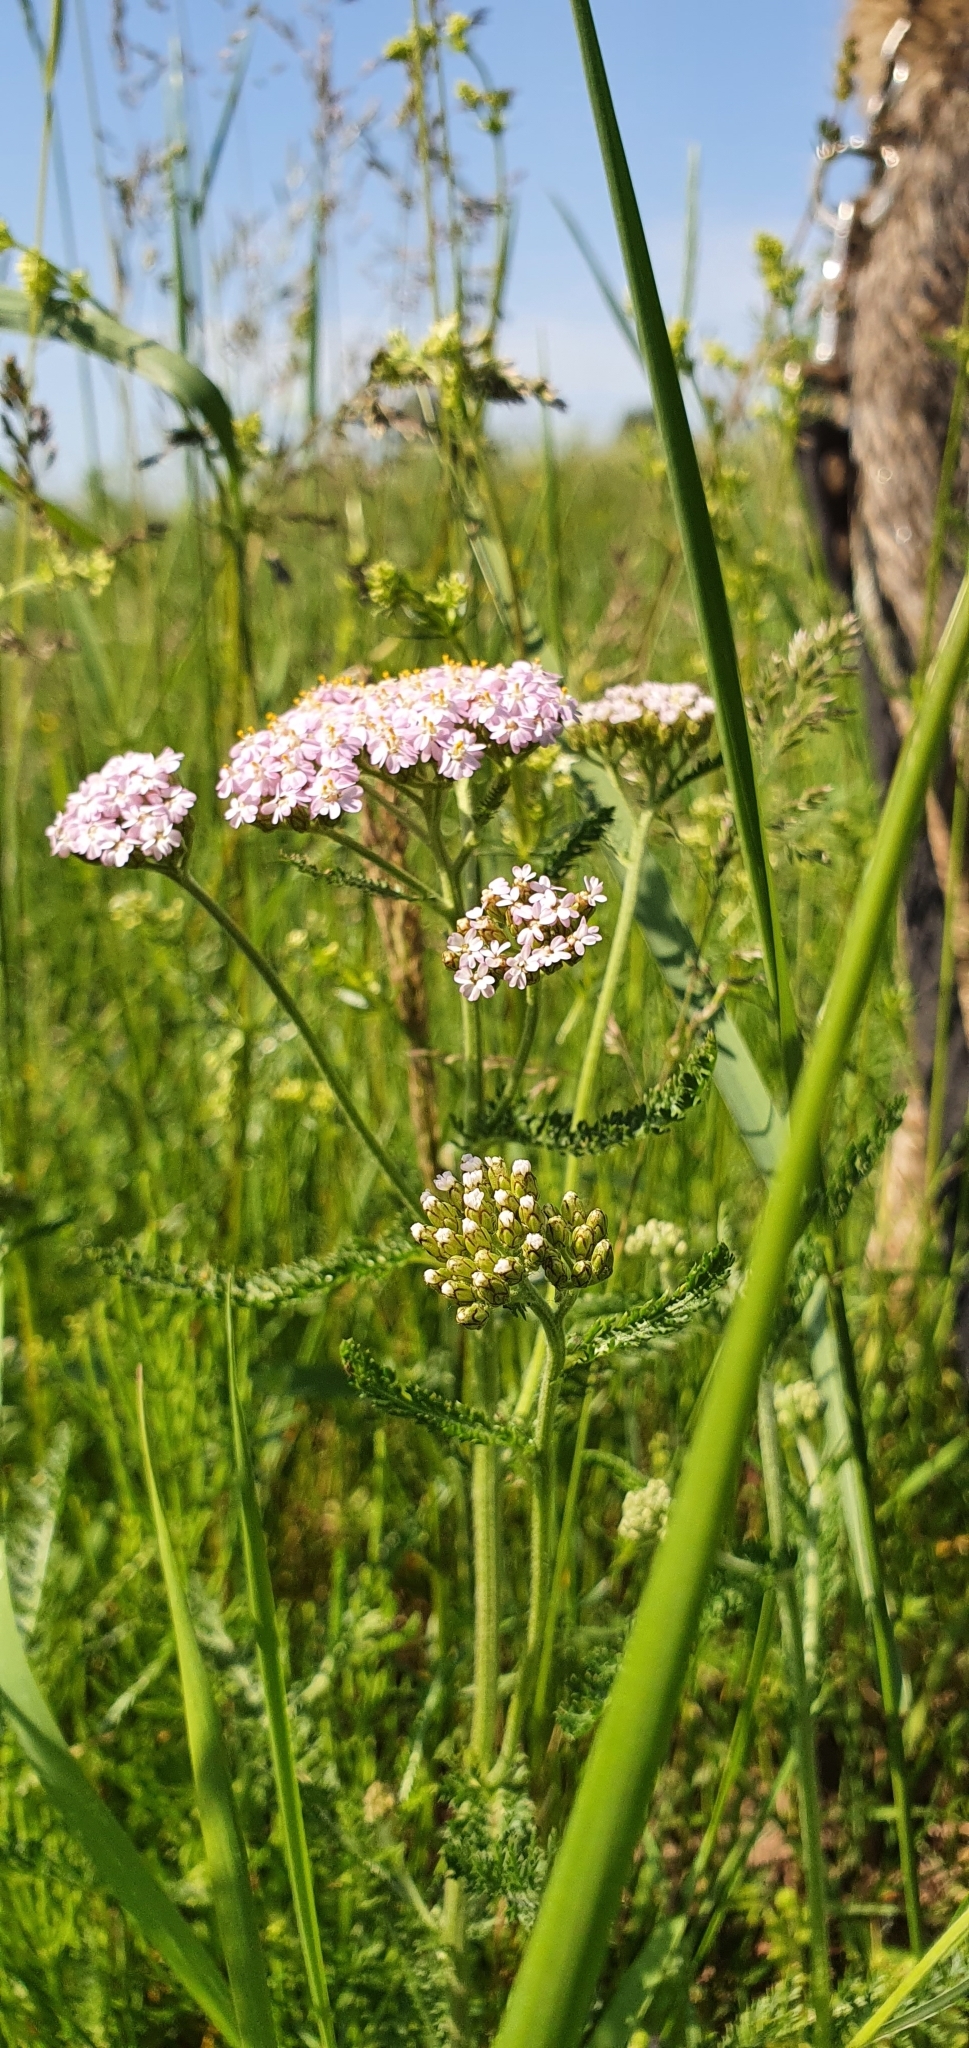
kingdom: Plantae
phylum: Tracheophyta
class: Magnoliopsida
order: Asterales
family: Asteraceae
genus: Achillea
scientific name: Achillea millefolium
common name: Yarrow
